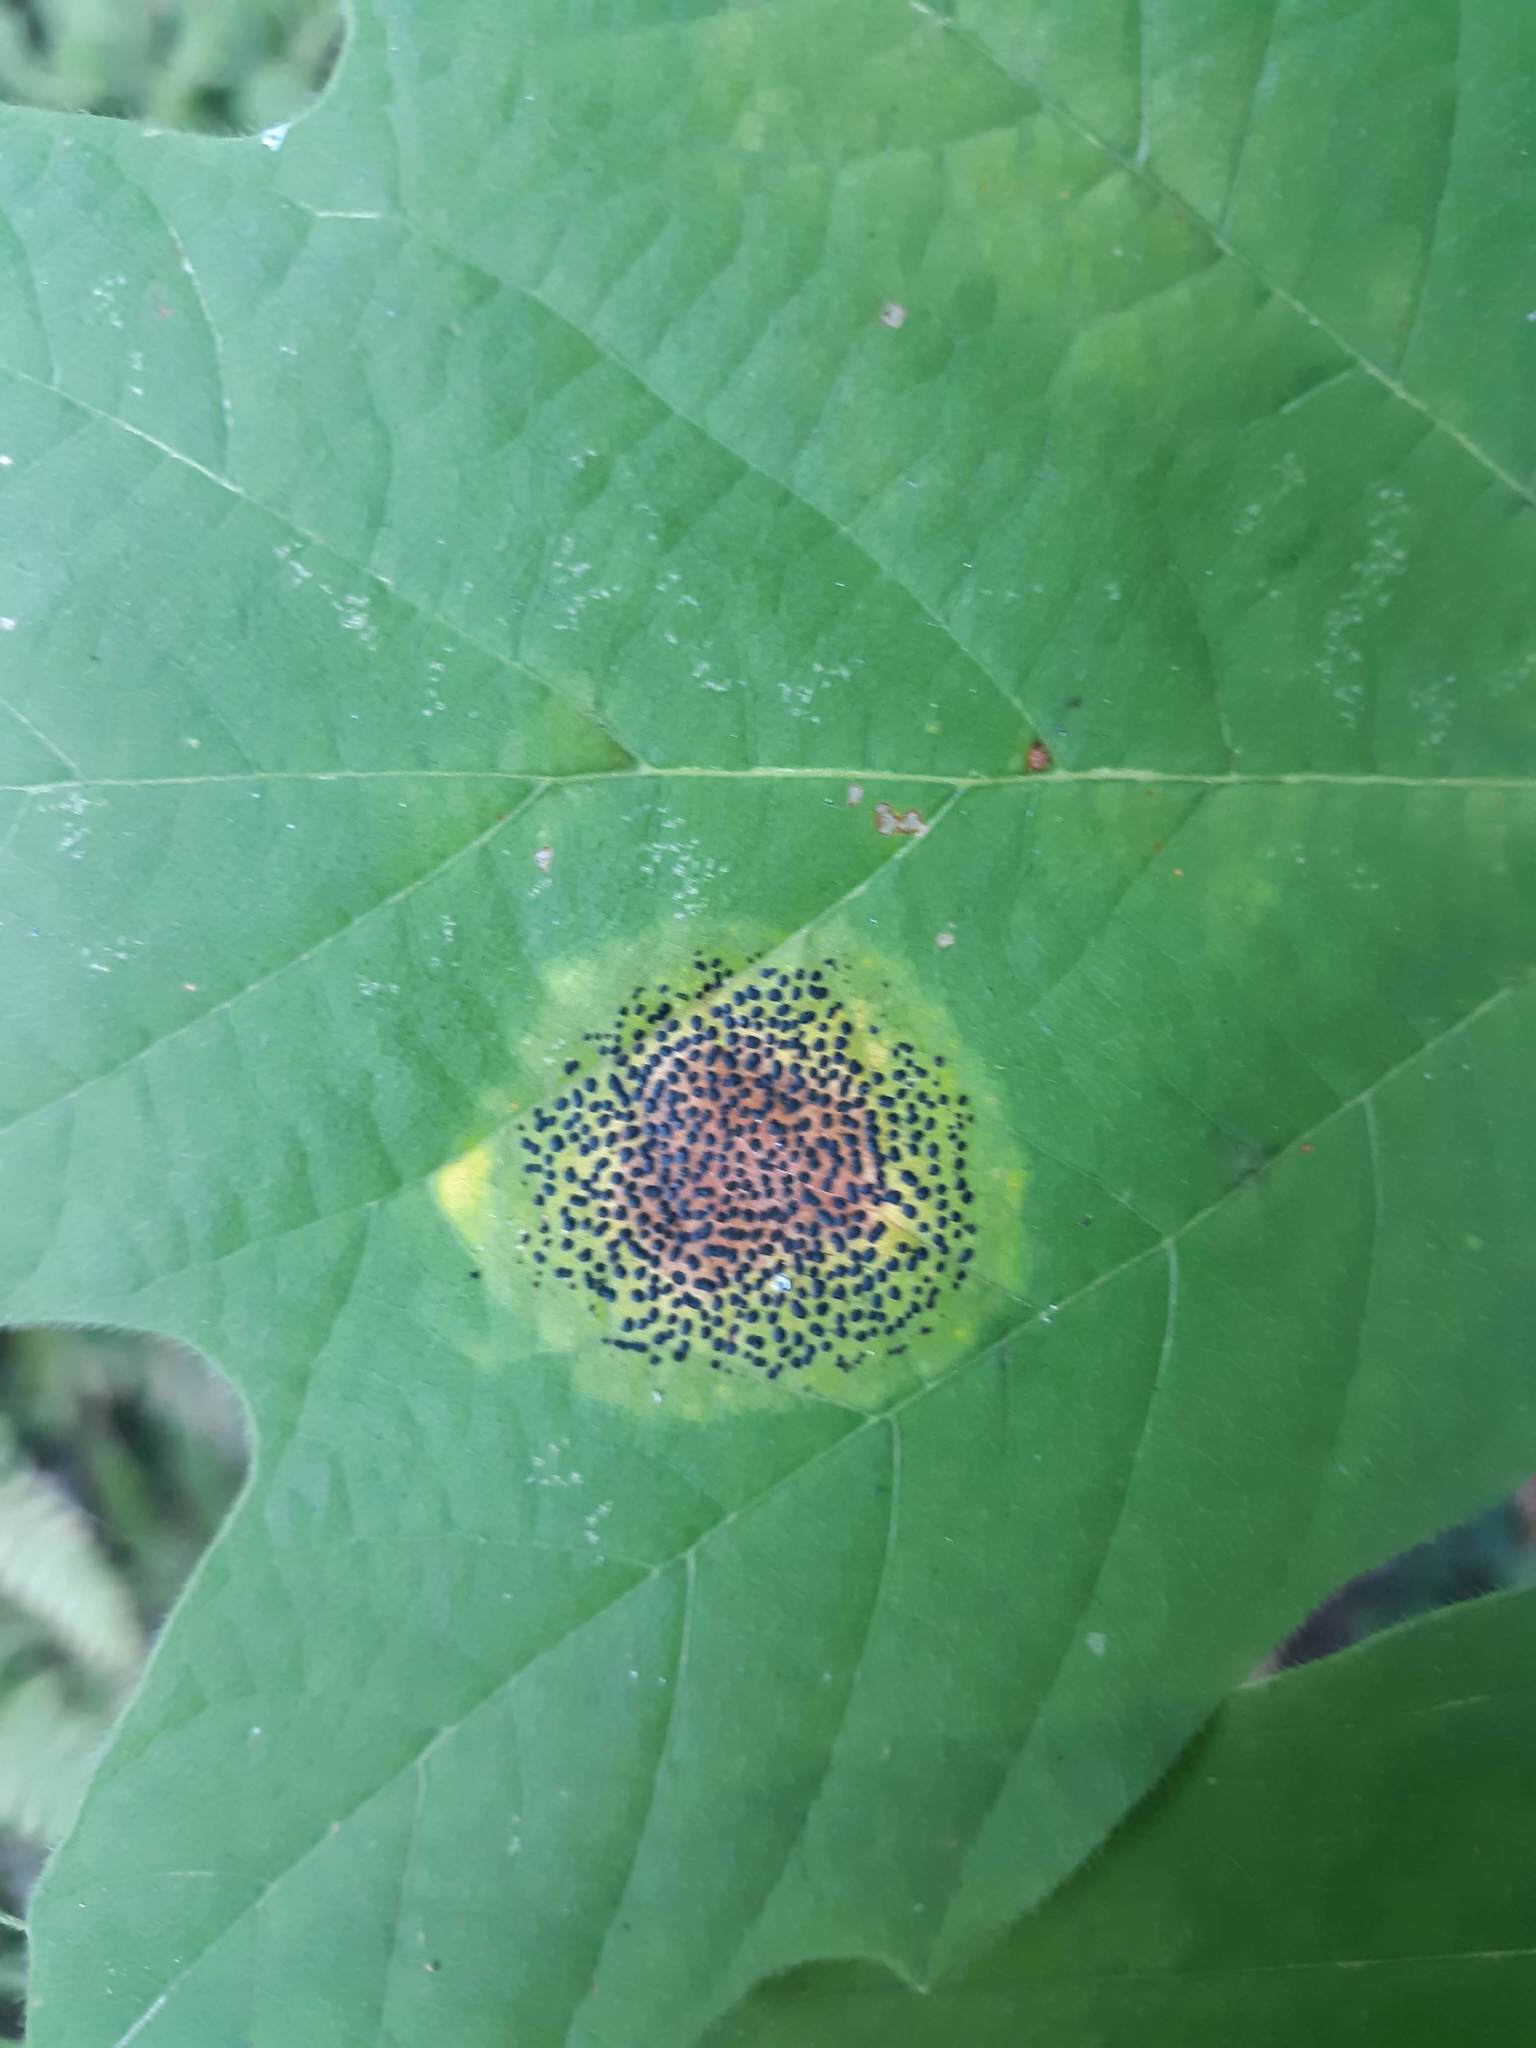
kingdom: Fungi
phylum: Ascomycota
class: Leotiomycetes
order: Rhytismatales
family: Rhytismataceae
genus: Rhytisma
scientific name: Rhytisma punctatum
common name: Speckled tar spot
